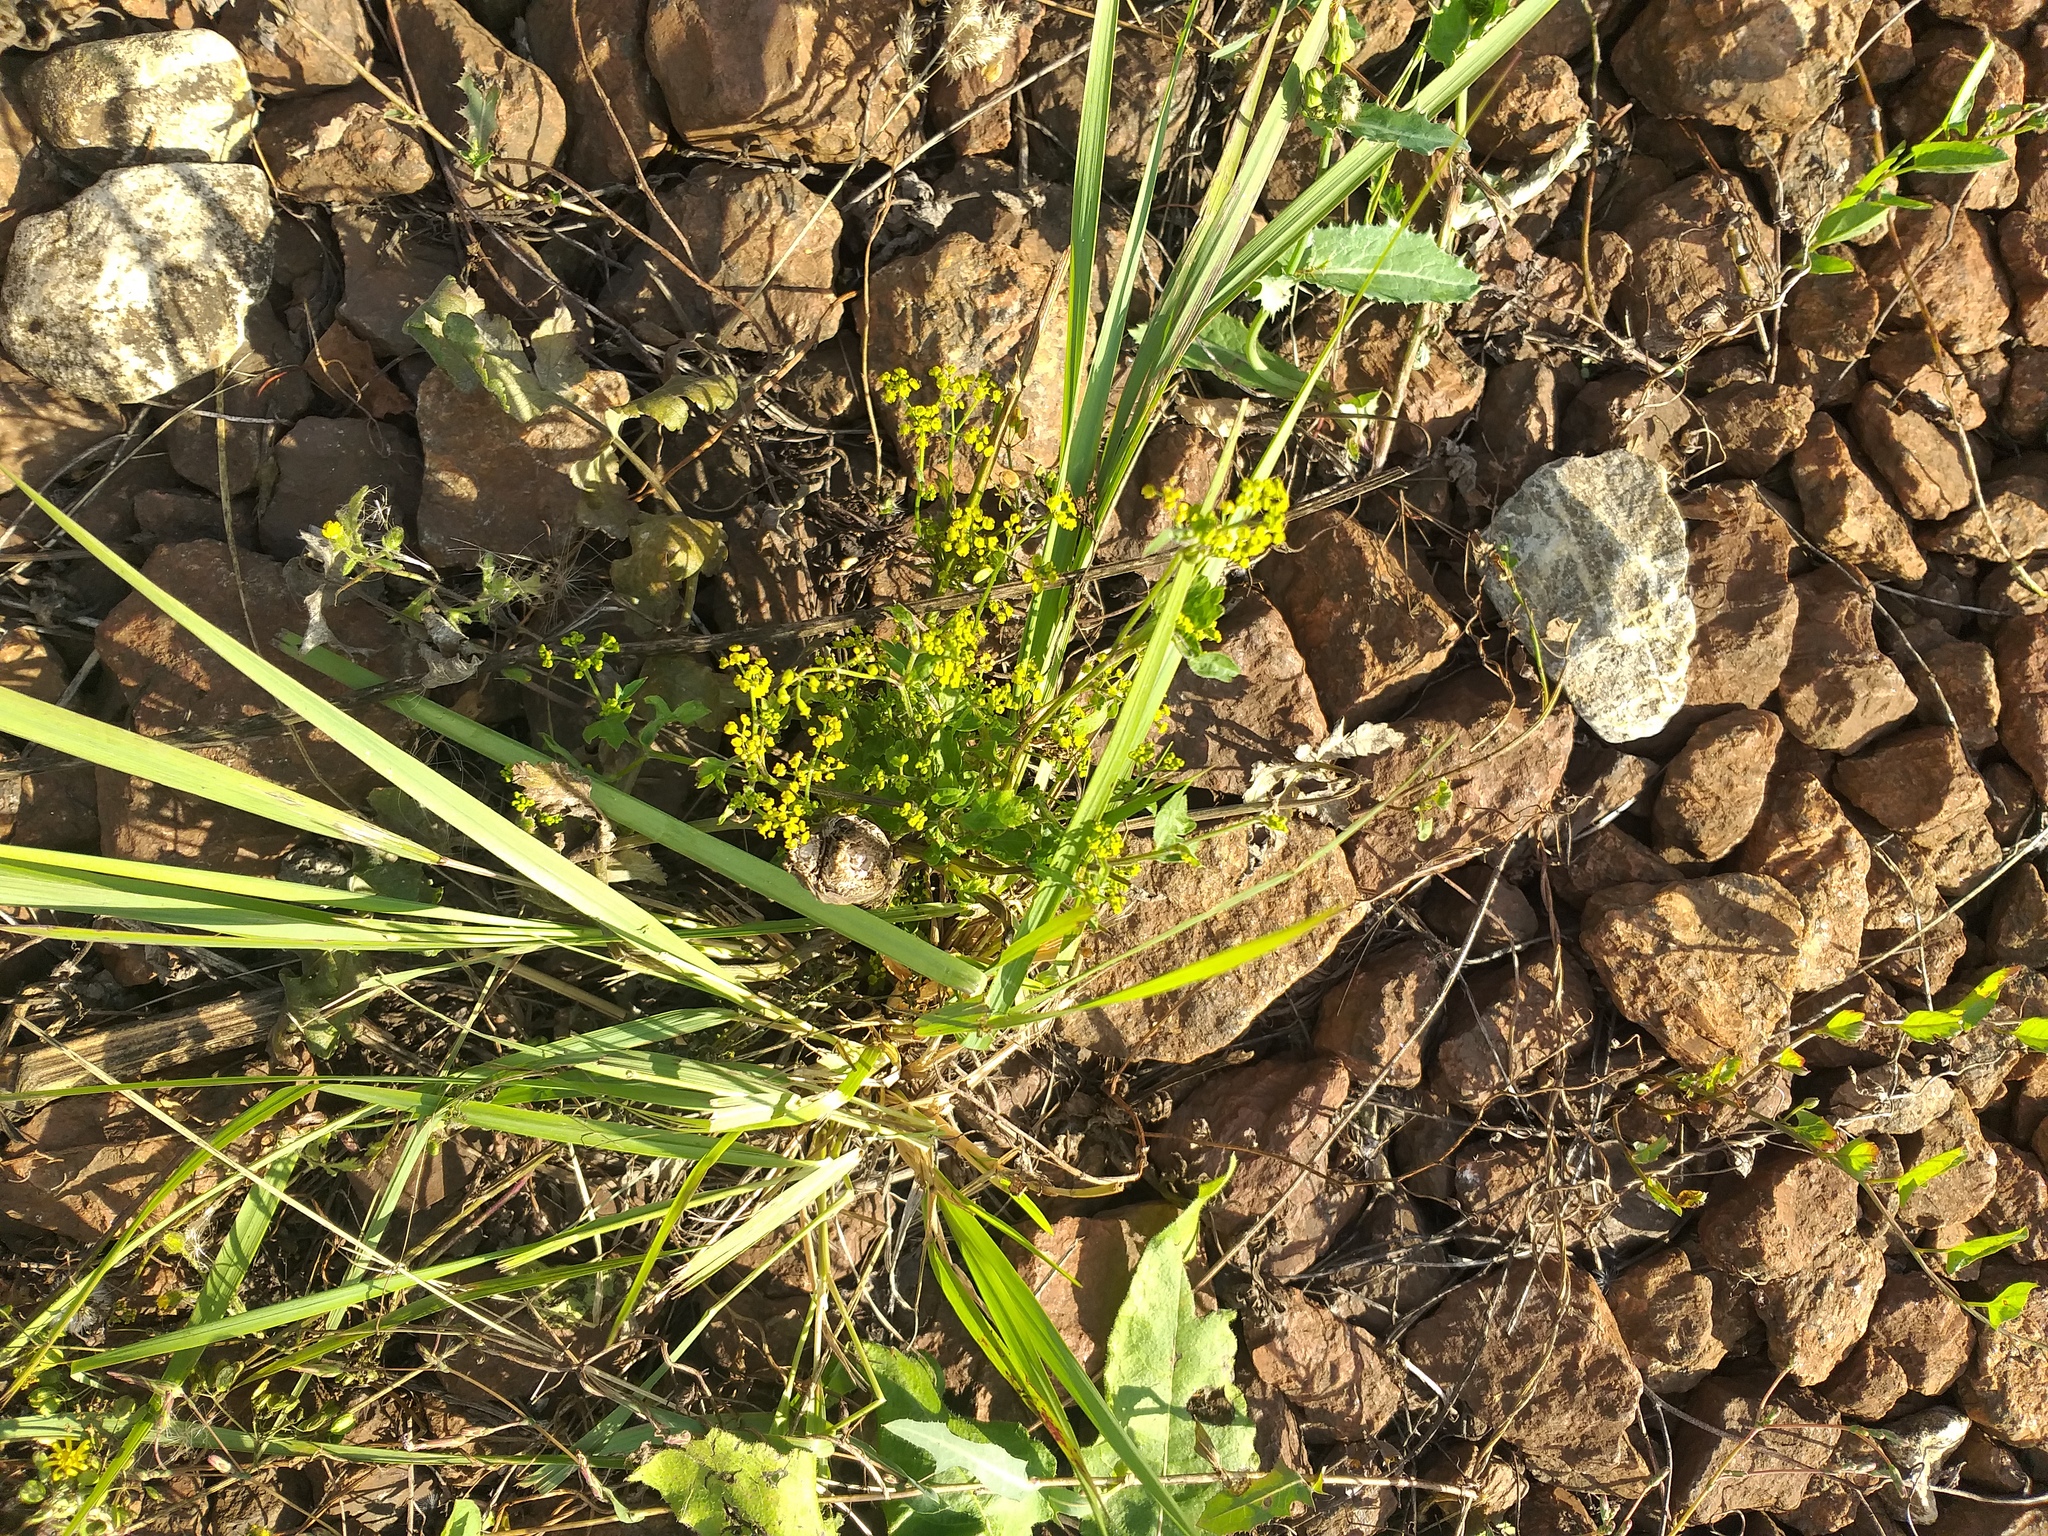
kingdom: Plantae
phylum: Tracheophyta
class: Magnoliopsida
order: Apiales
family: Apiaceae
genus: Pastinaca
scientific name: Pastinaca sativa
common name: Wild parsnip
